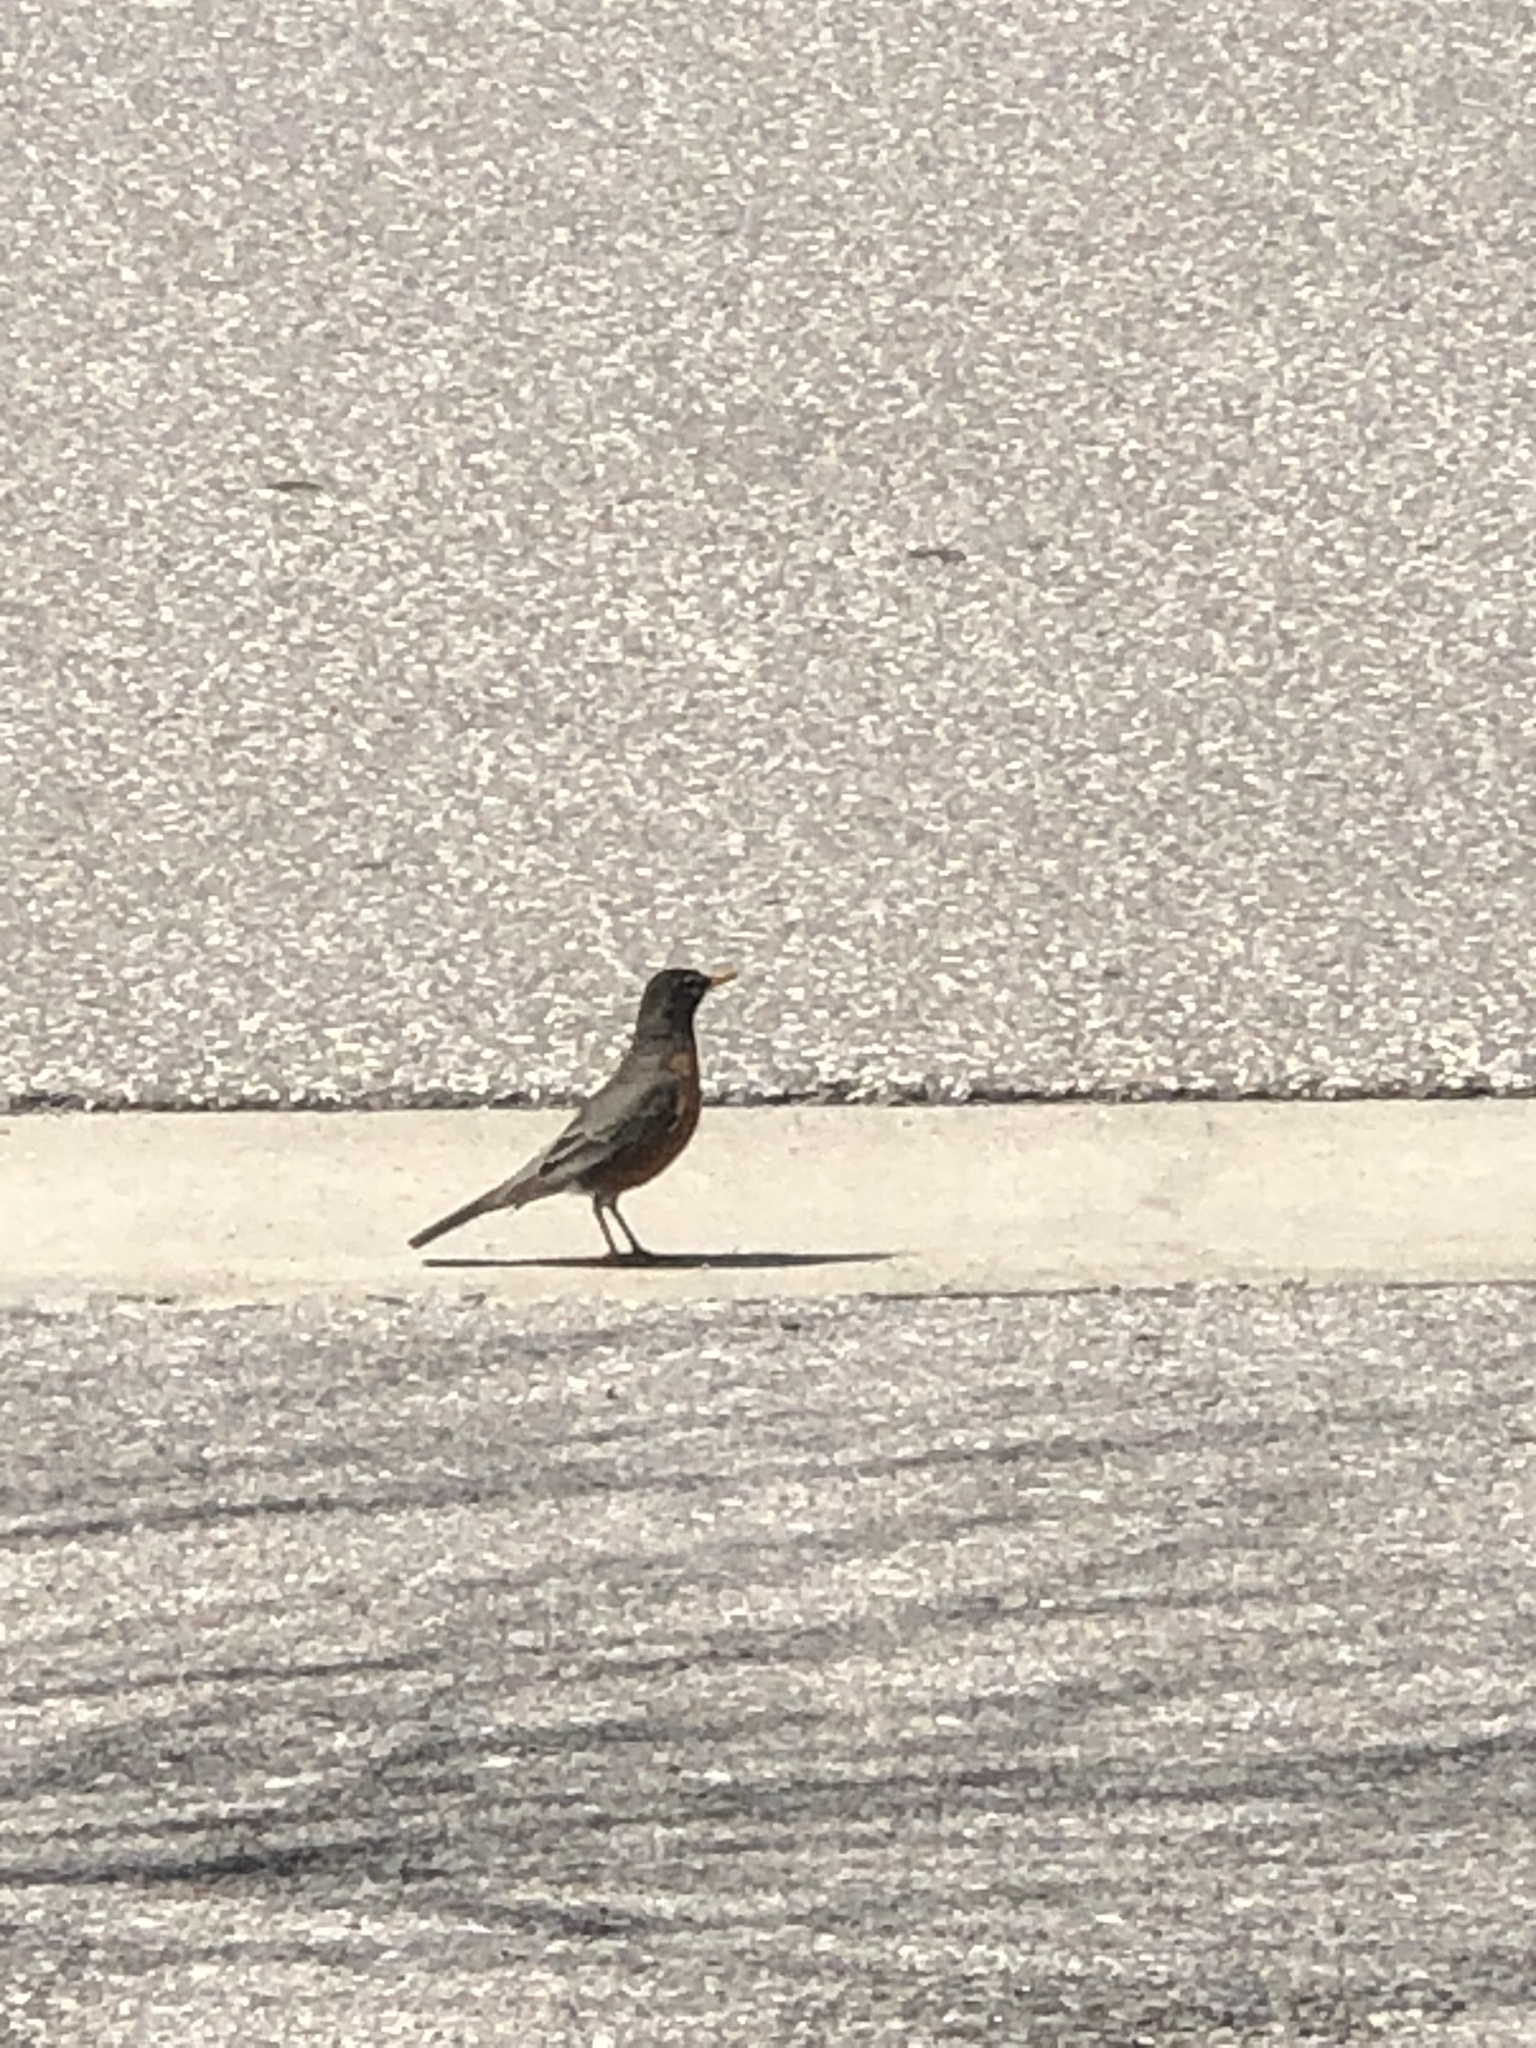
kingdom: Animalia
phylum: Chordata
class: Aves
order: Passeriformes
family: Turdidae
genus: Turdus
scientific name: Turdus migratorius
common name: American robin
